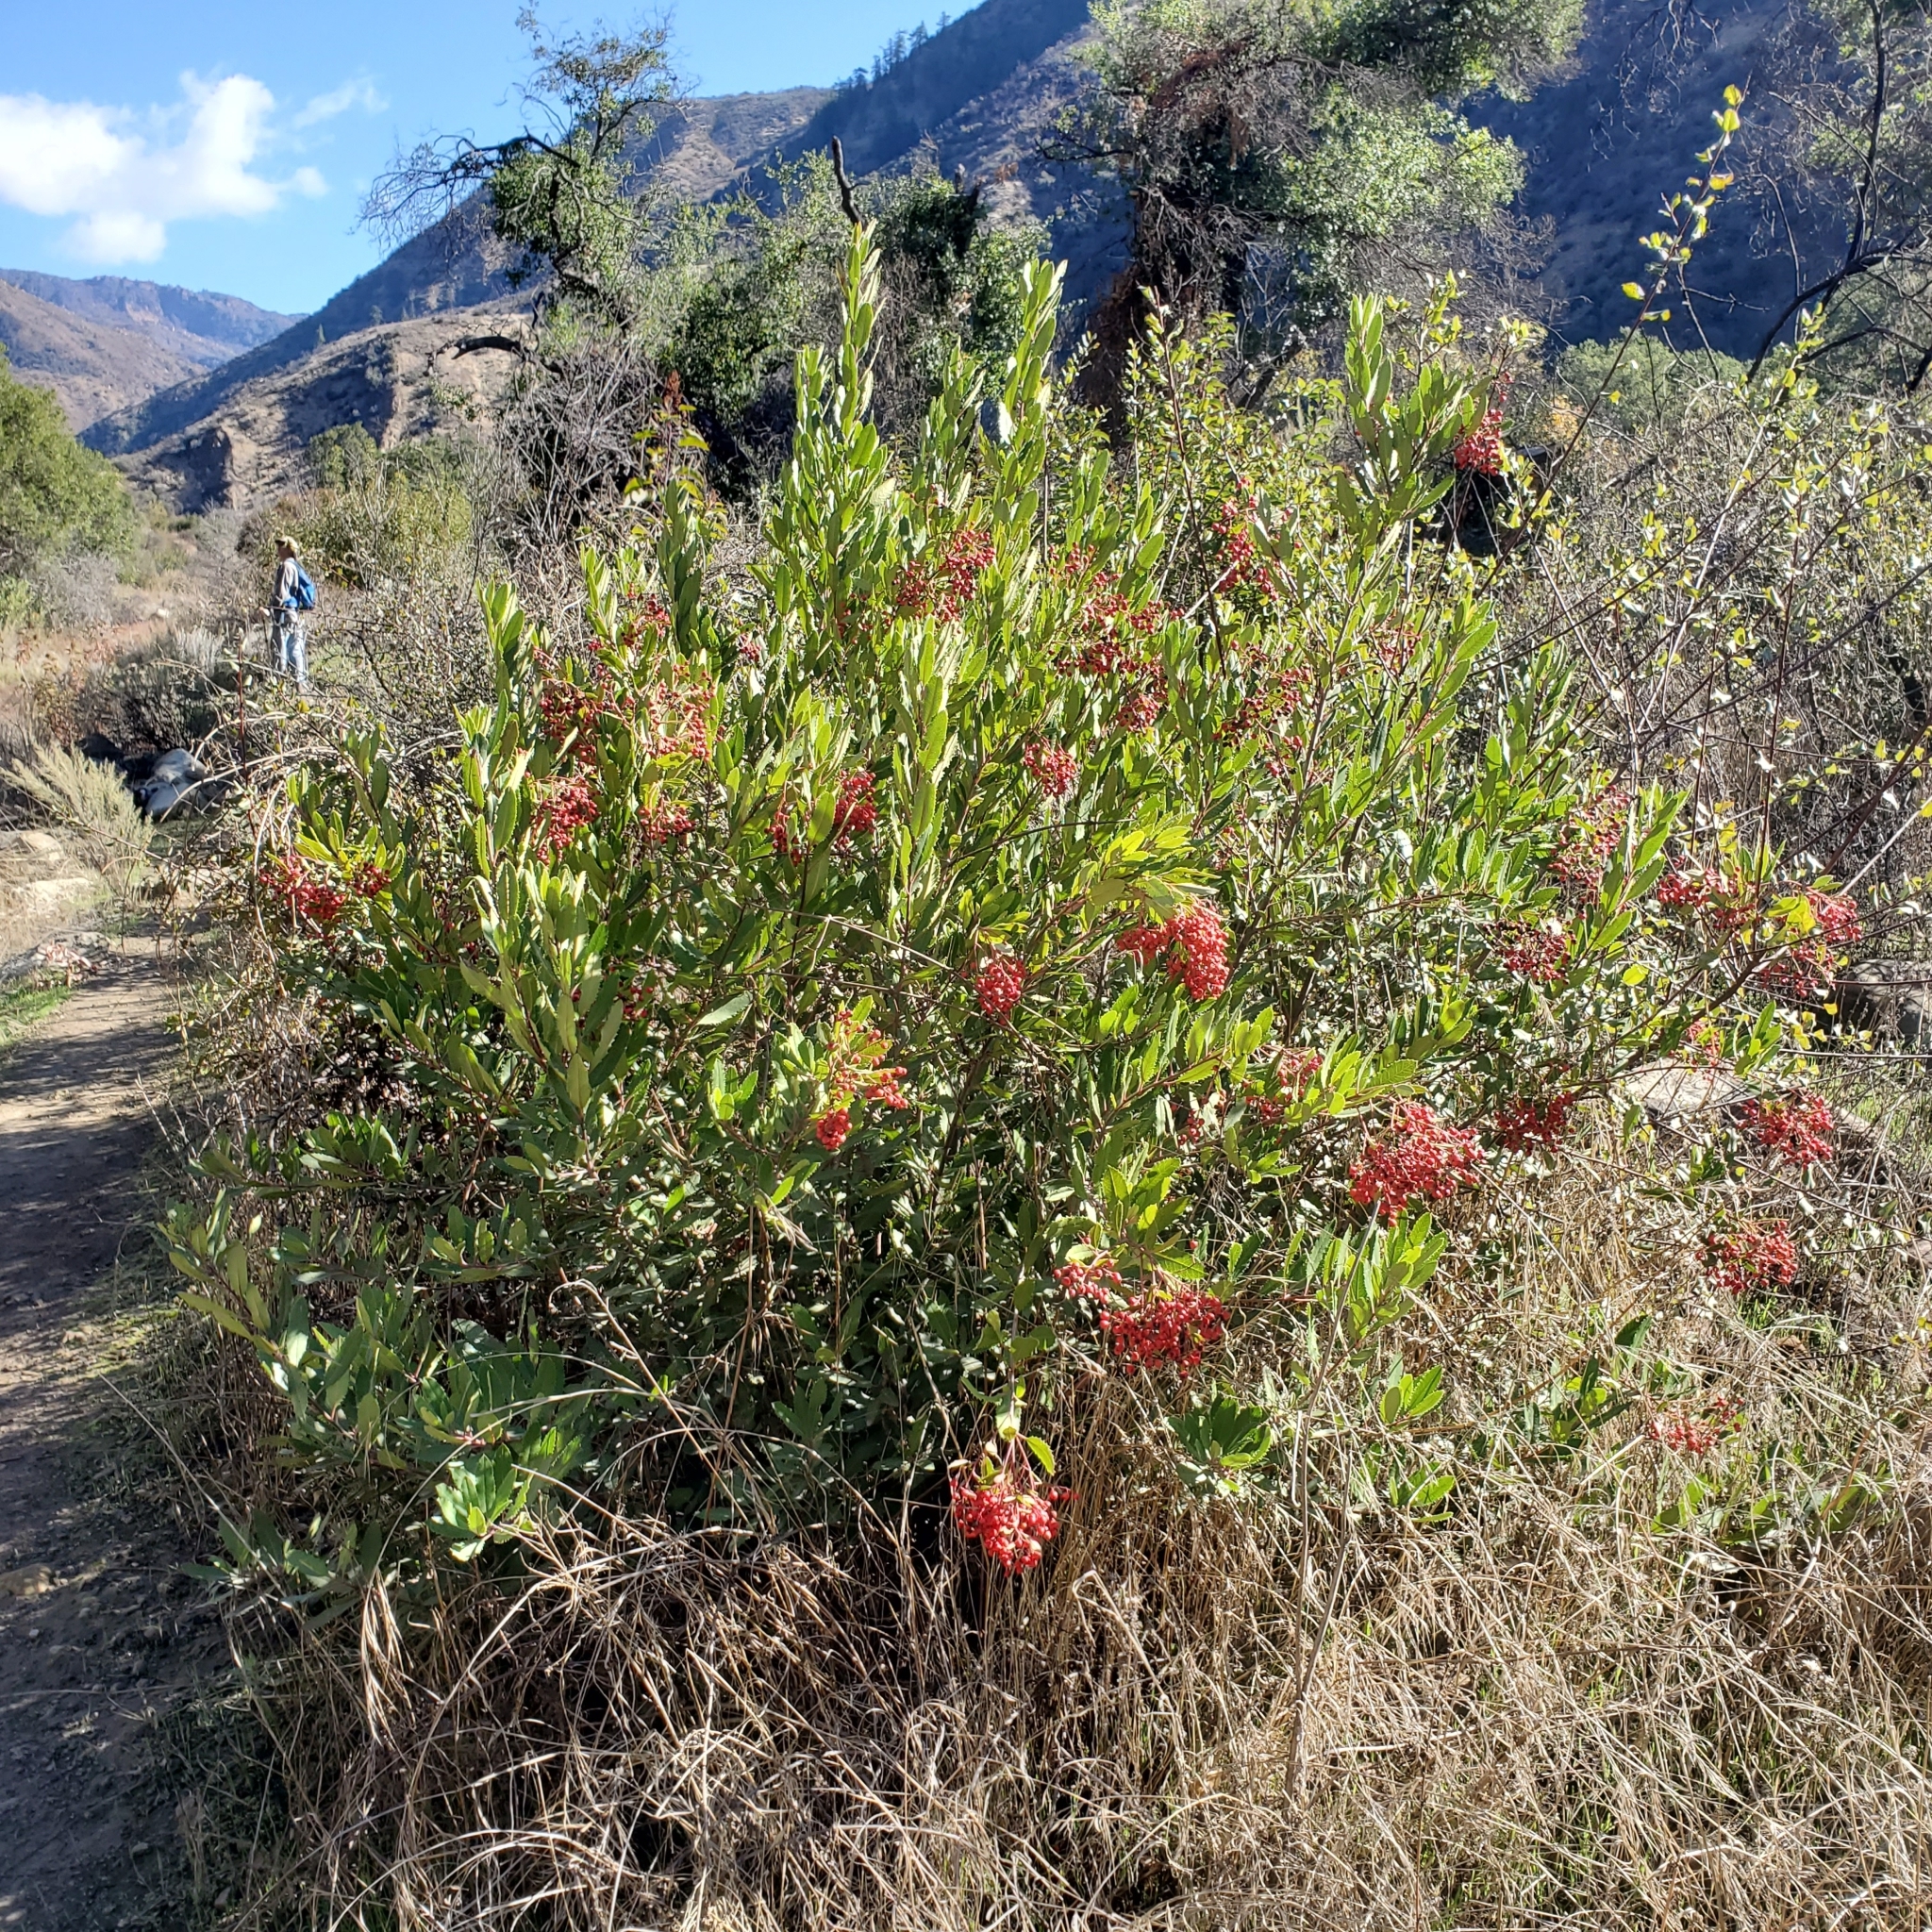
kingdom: Plantae
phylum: Tracheophyta
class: Magnoliopsida
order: Rosales
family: Rosaceae
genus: Heteromeles
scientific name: Heteromeles arbutifolia
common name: California-holly
